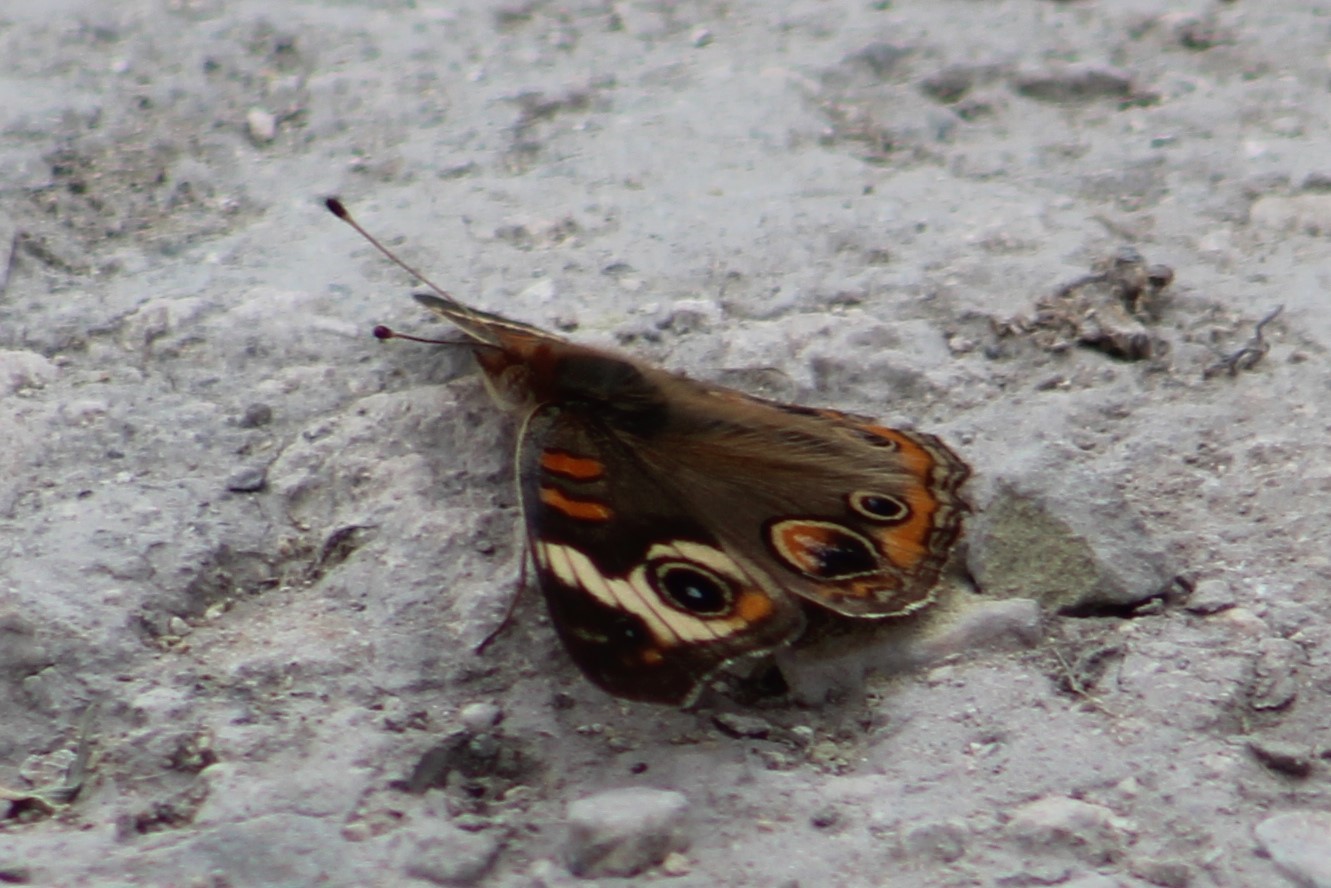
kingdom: Animalia
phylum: Arthropoda
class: Insecta
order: Lepidoptera
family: Nymphalidae
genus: Junonia
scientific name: Junonia coenia
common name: Common buckeye
